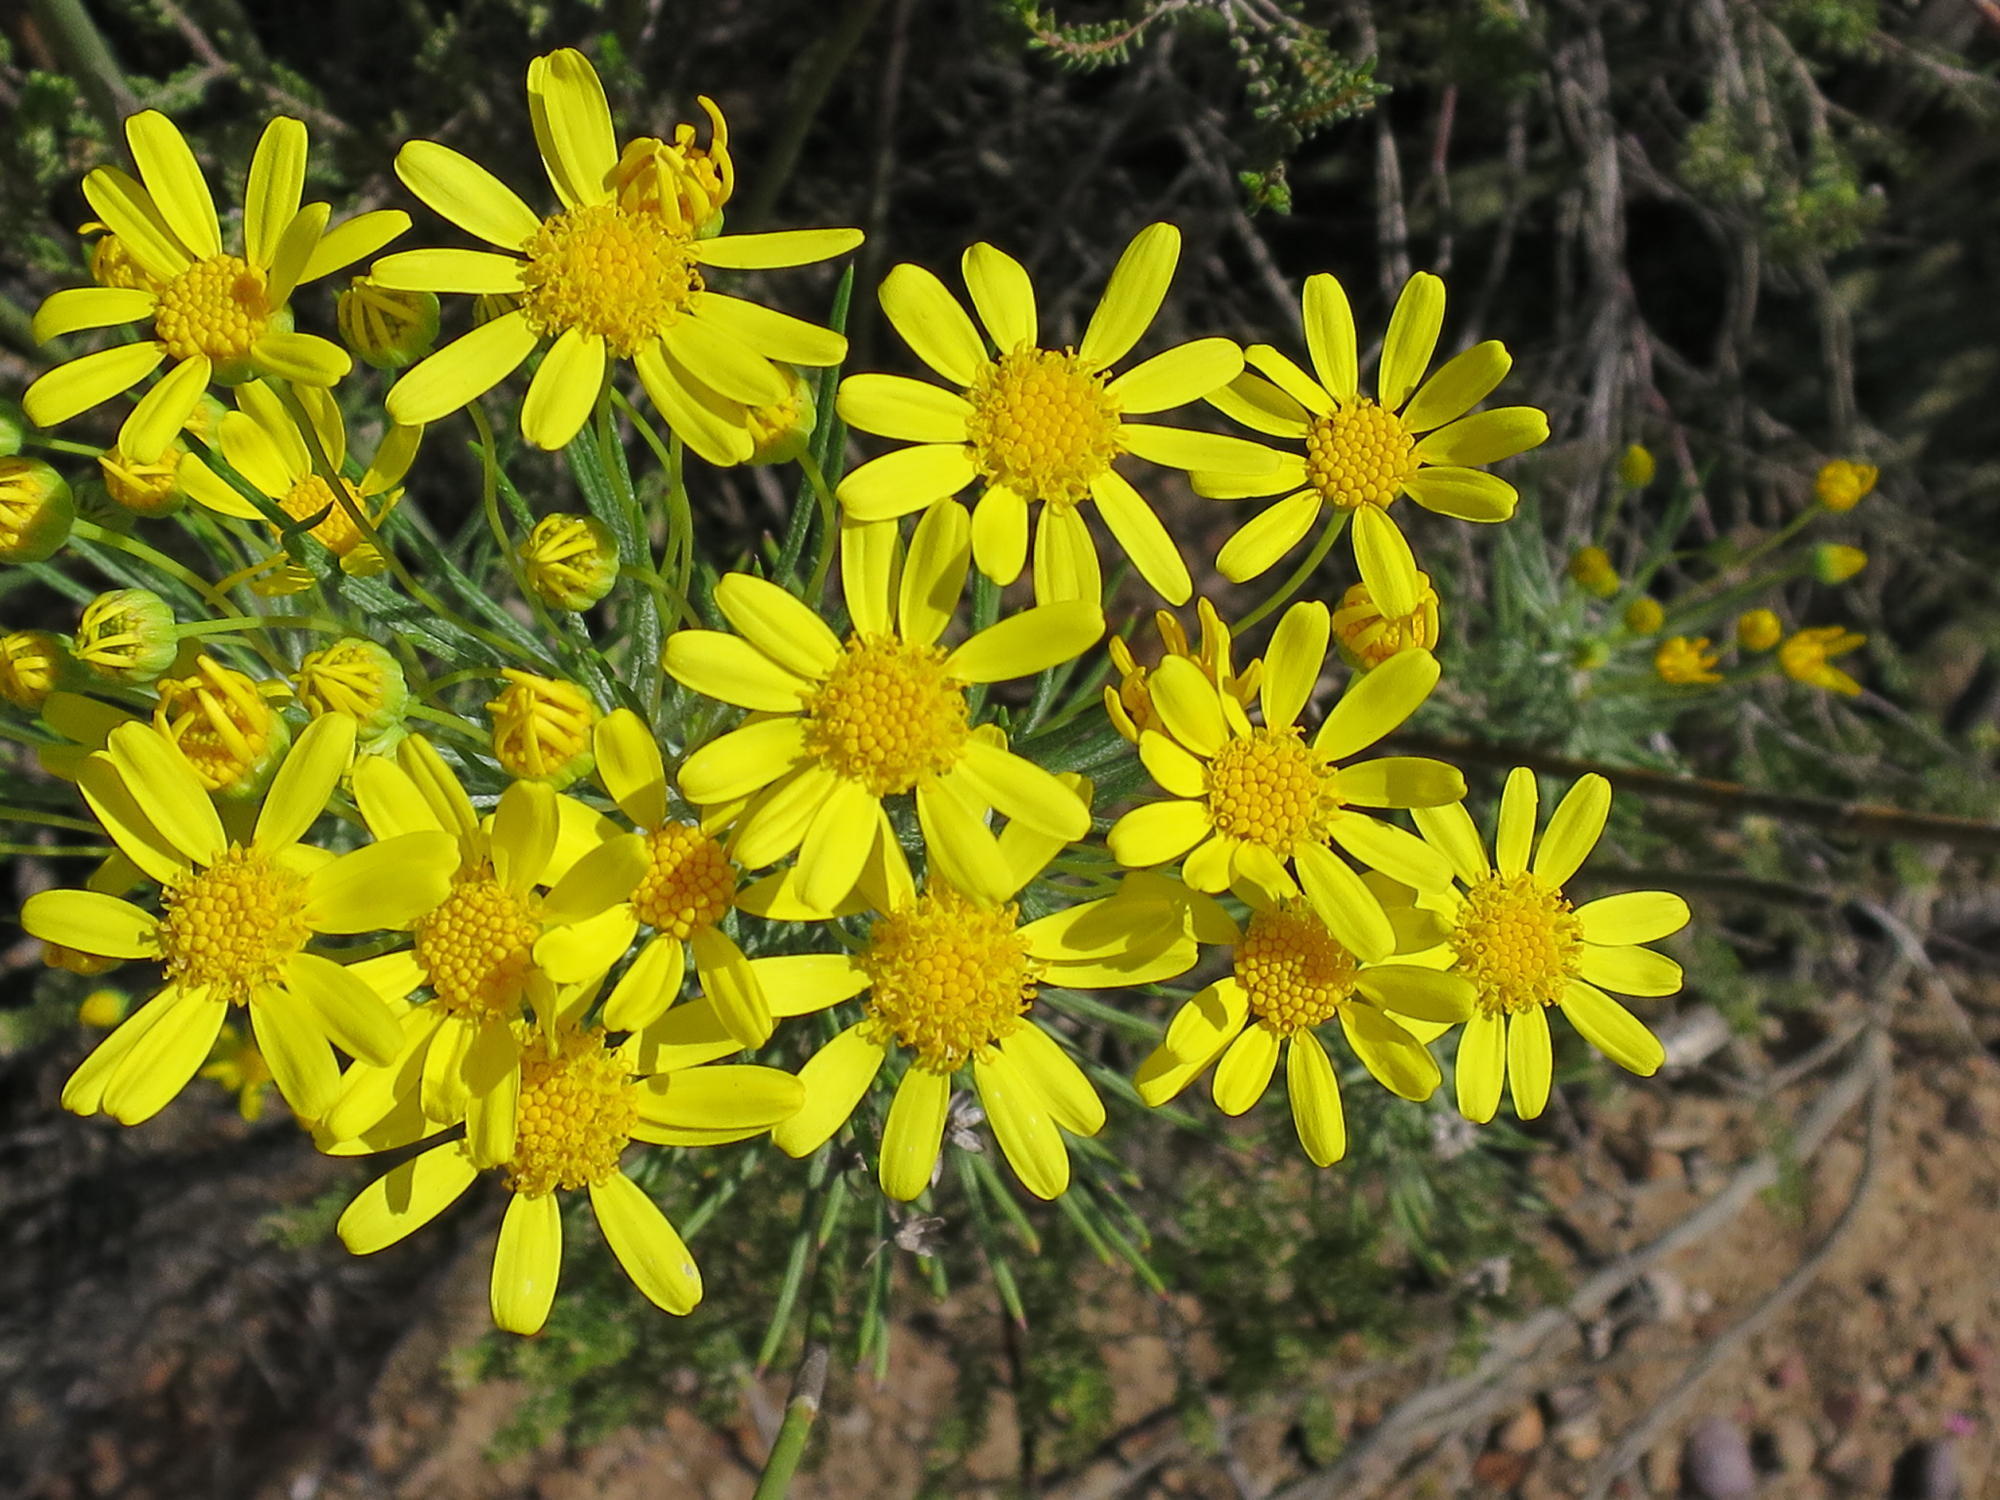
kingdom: Plantae
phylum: Tracheophyta
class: Magnoliopsida
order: Asterales
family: Asteraceae
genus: Euryops
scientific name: Euryops rehmannii
